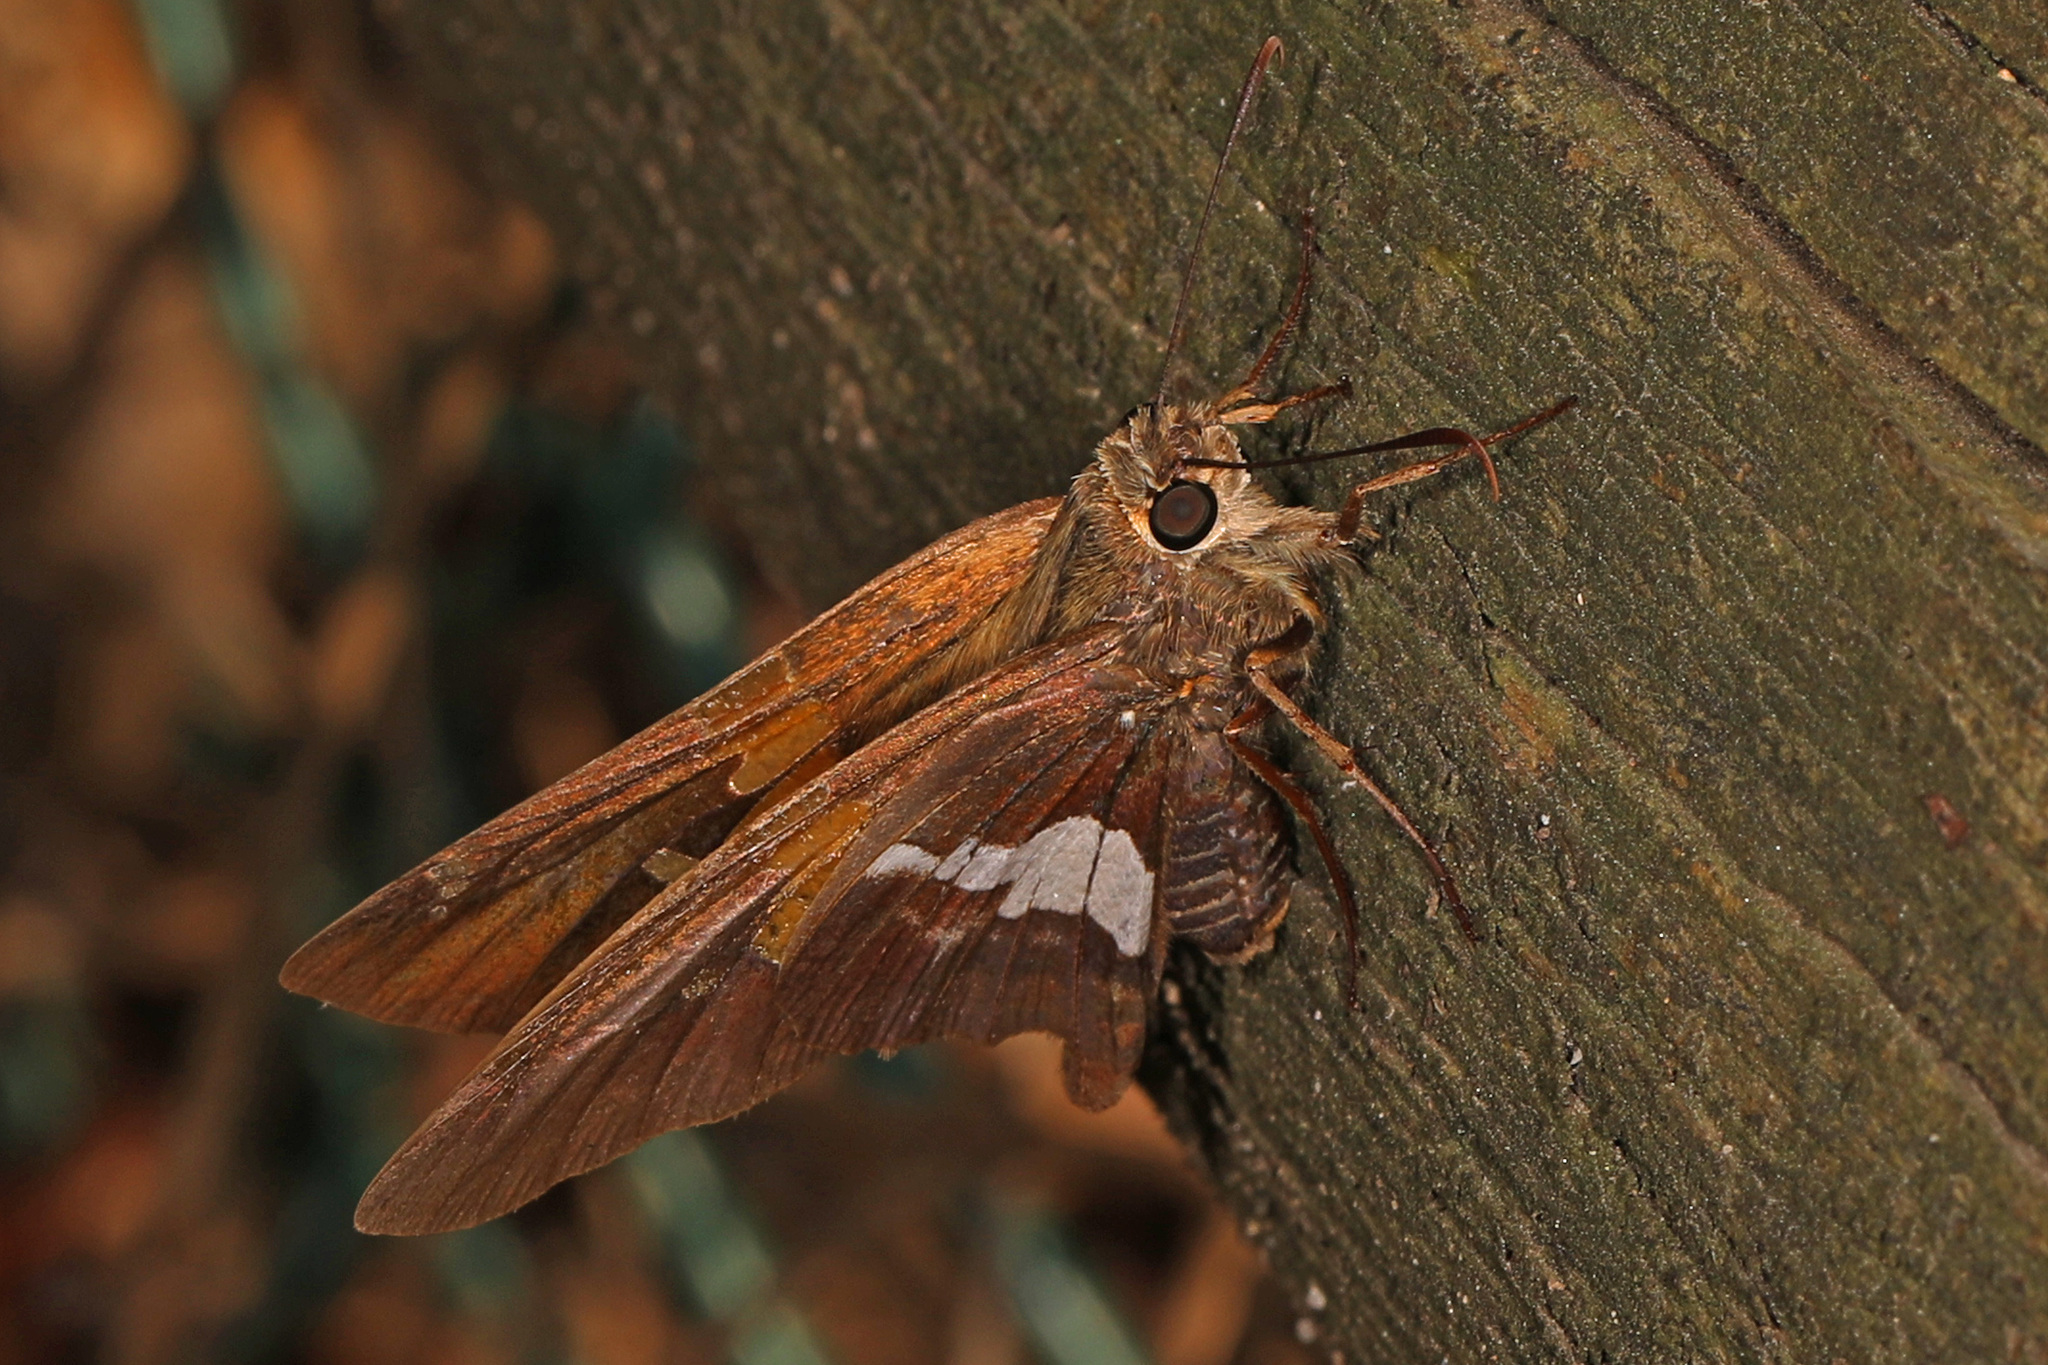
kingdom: Animalia
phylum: Arthropoda
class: Insecta
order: Lepidoptera
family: Hesperiidae
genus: Epargyreus
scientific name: Epargyreus clarus
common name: Silver-spotted skipper
